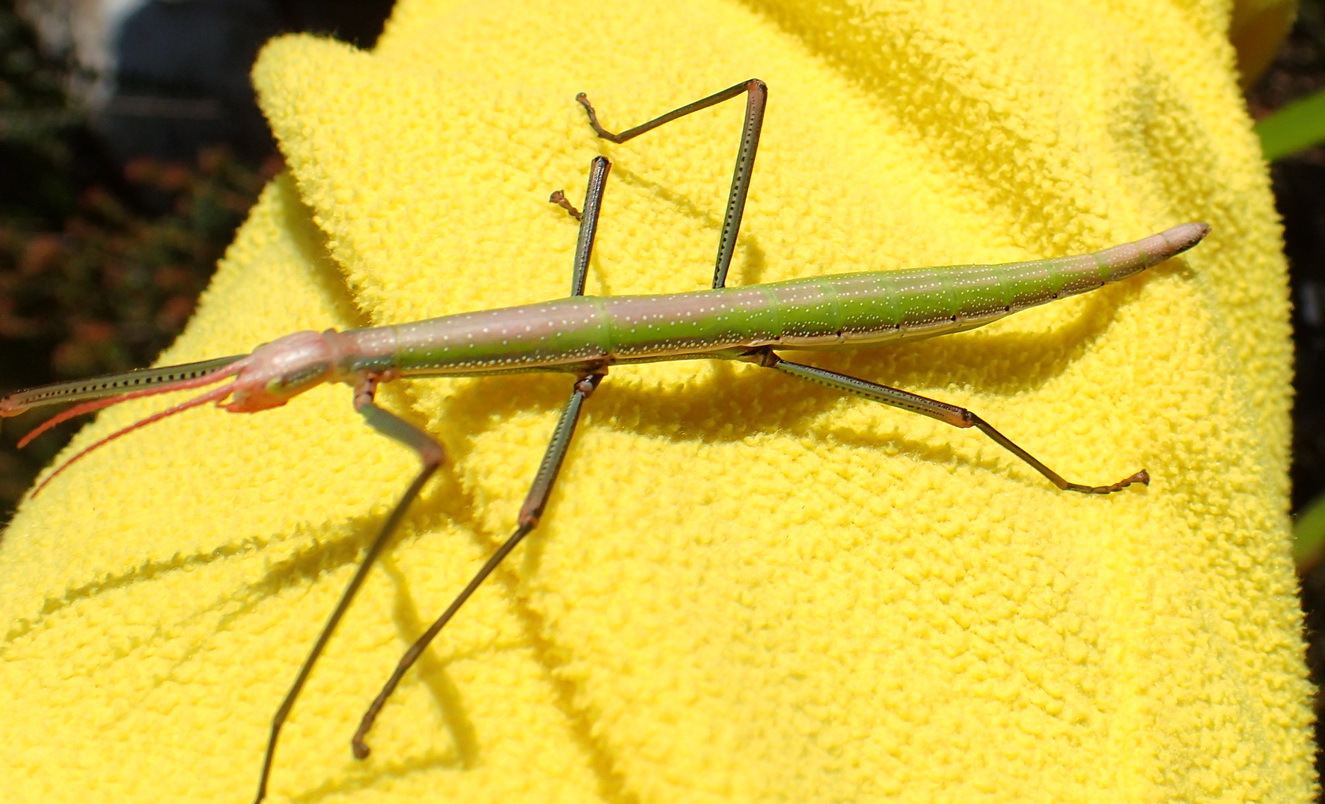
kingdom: Animalia
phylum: Arthropoda
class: Insecta
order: Phasmida
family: Bacillidae
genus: Macynia
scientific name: Macynia labiata
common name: Thunberg's stick insect
